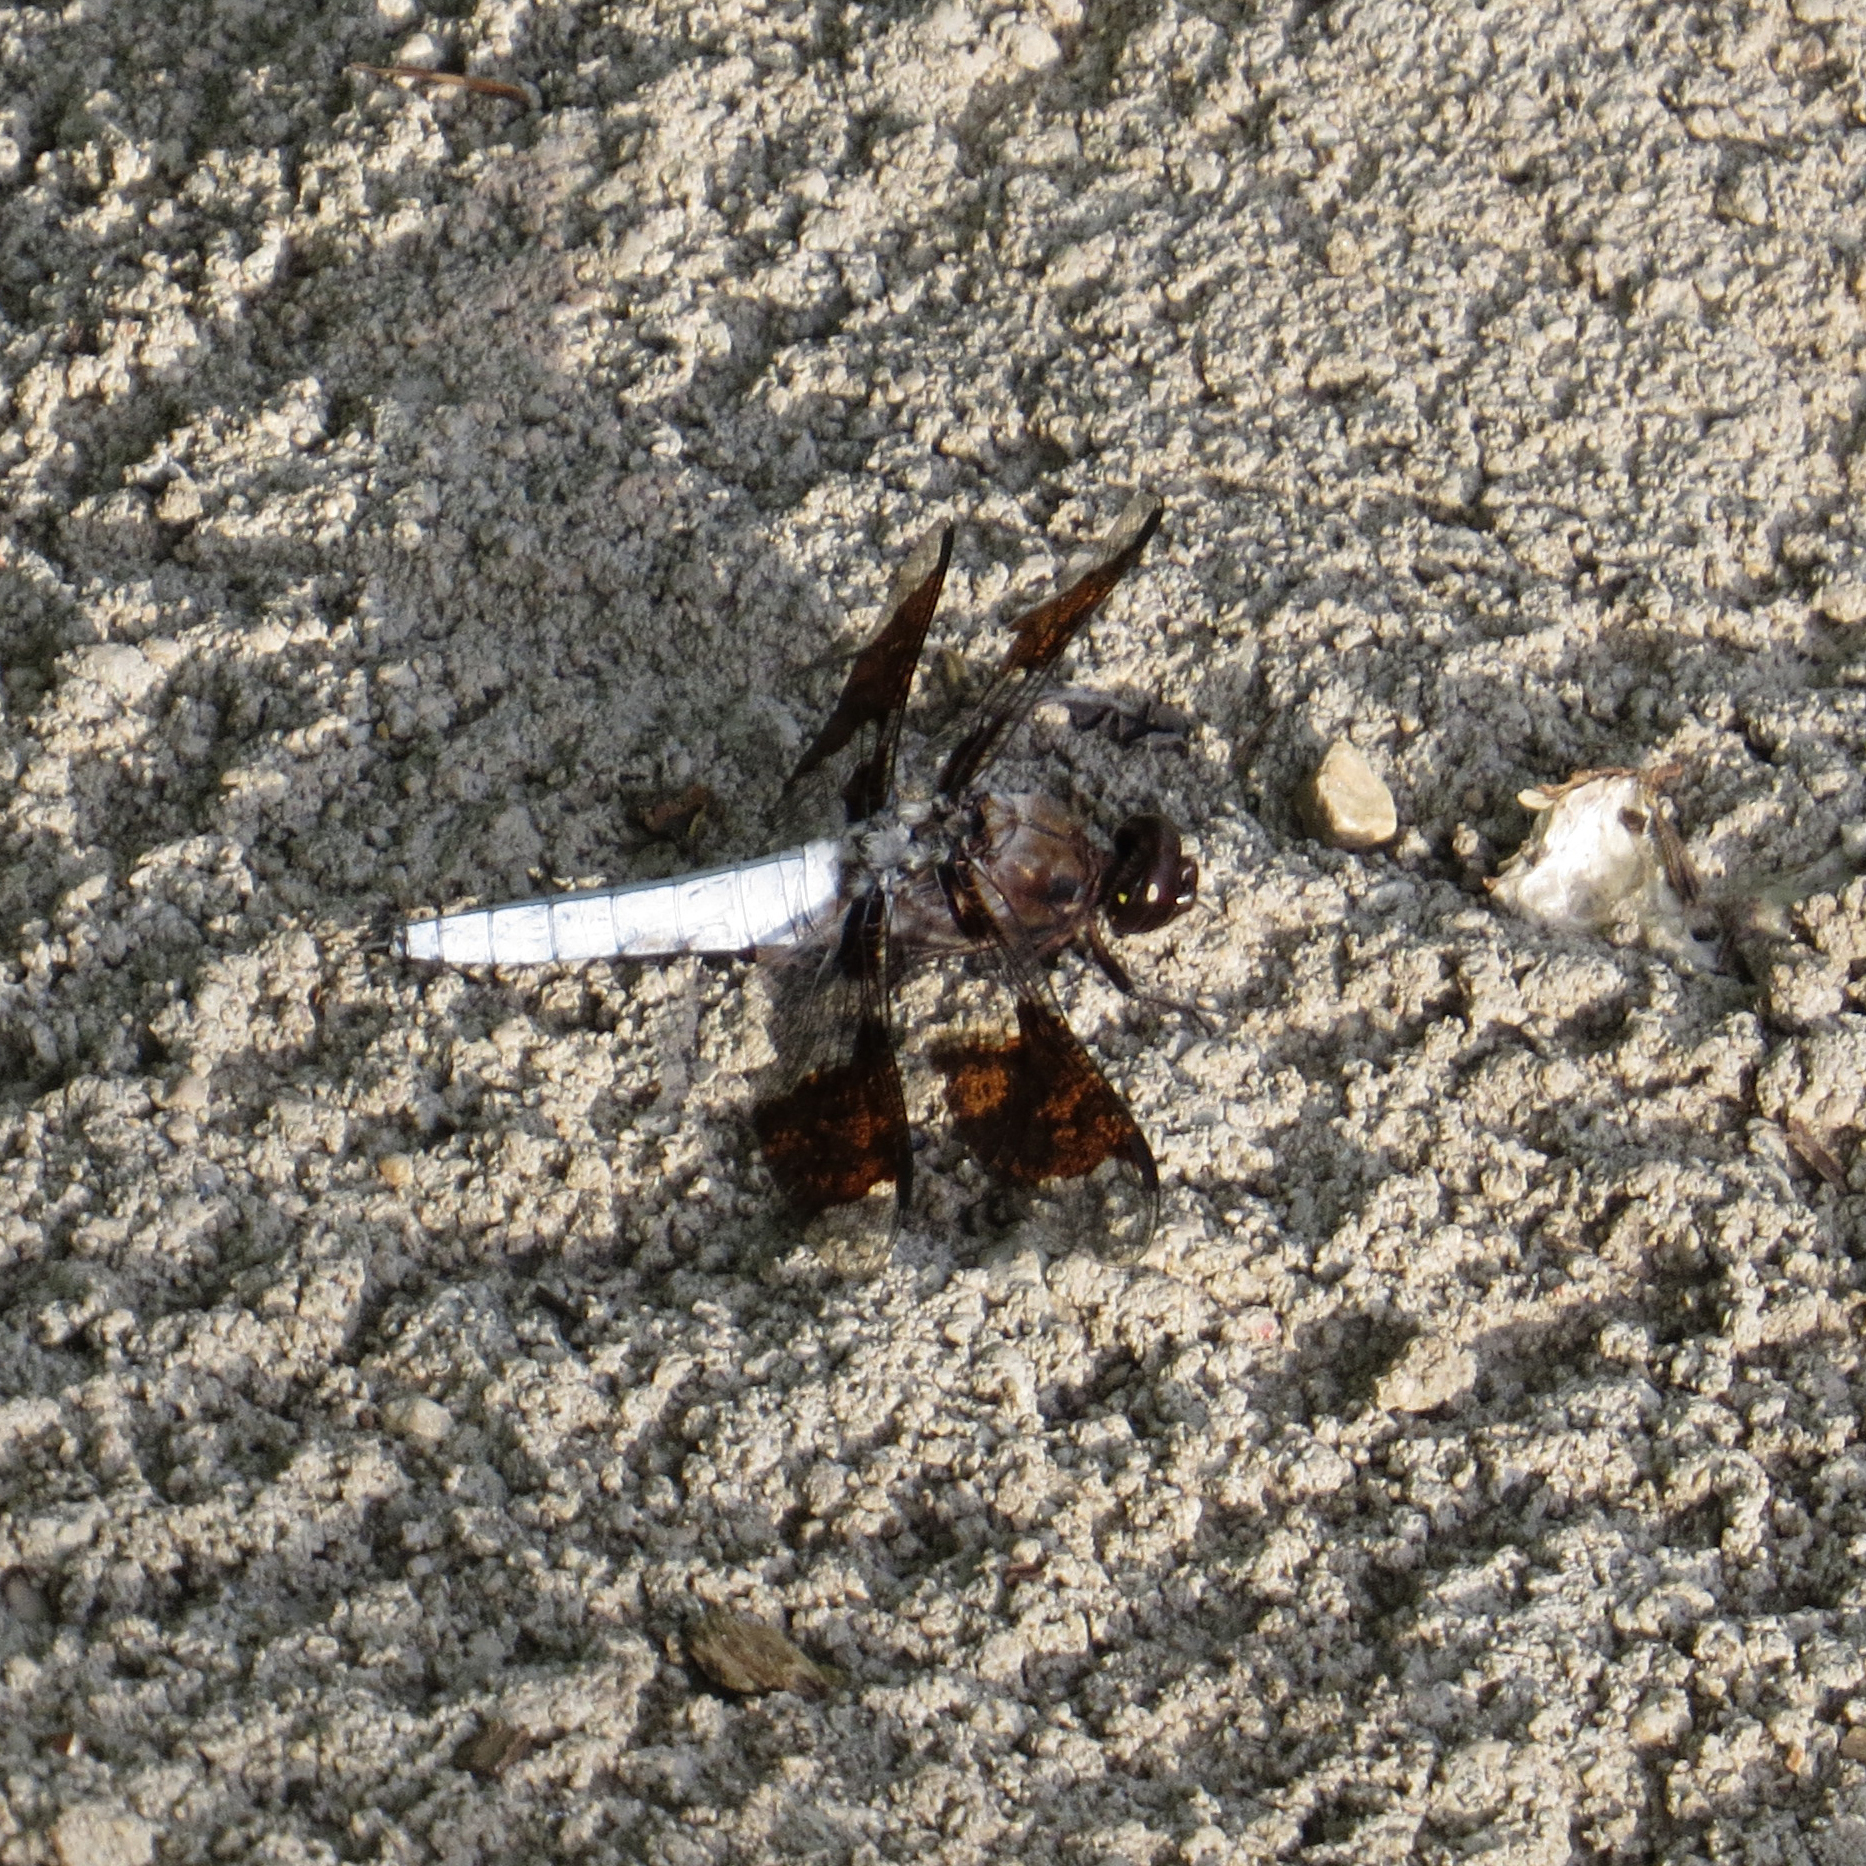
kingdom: Animalia
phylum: Arthropoda
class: Insecta
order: Odonata
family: Libellulidae
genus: Plathemis
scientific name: Plathemis lydia
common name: Common whitetail
